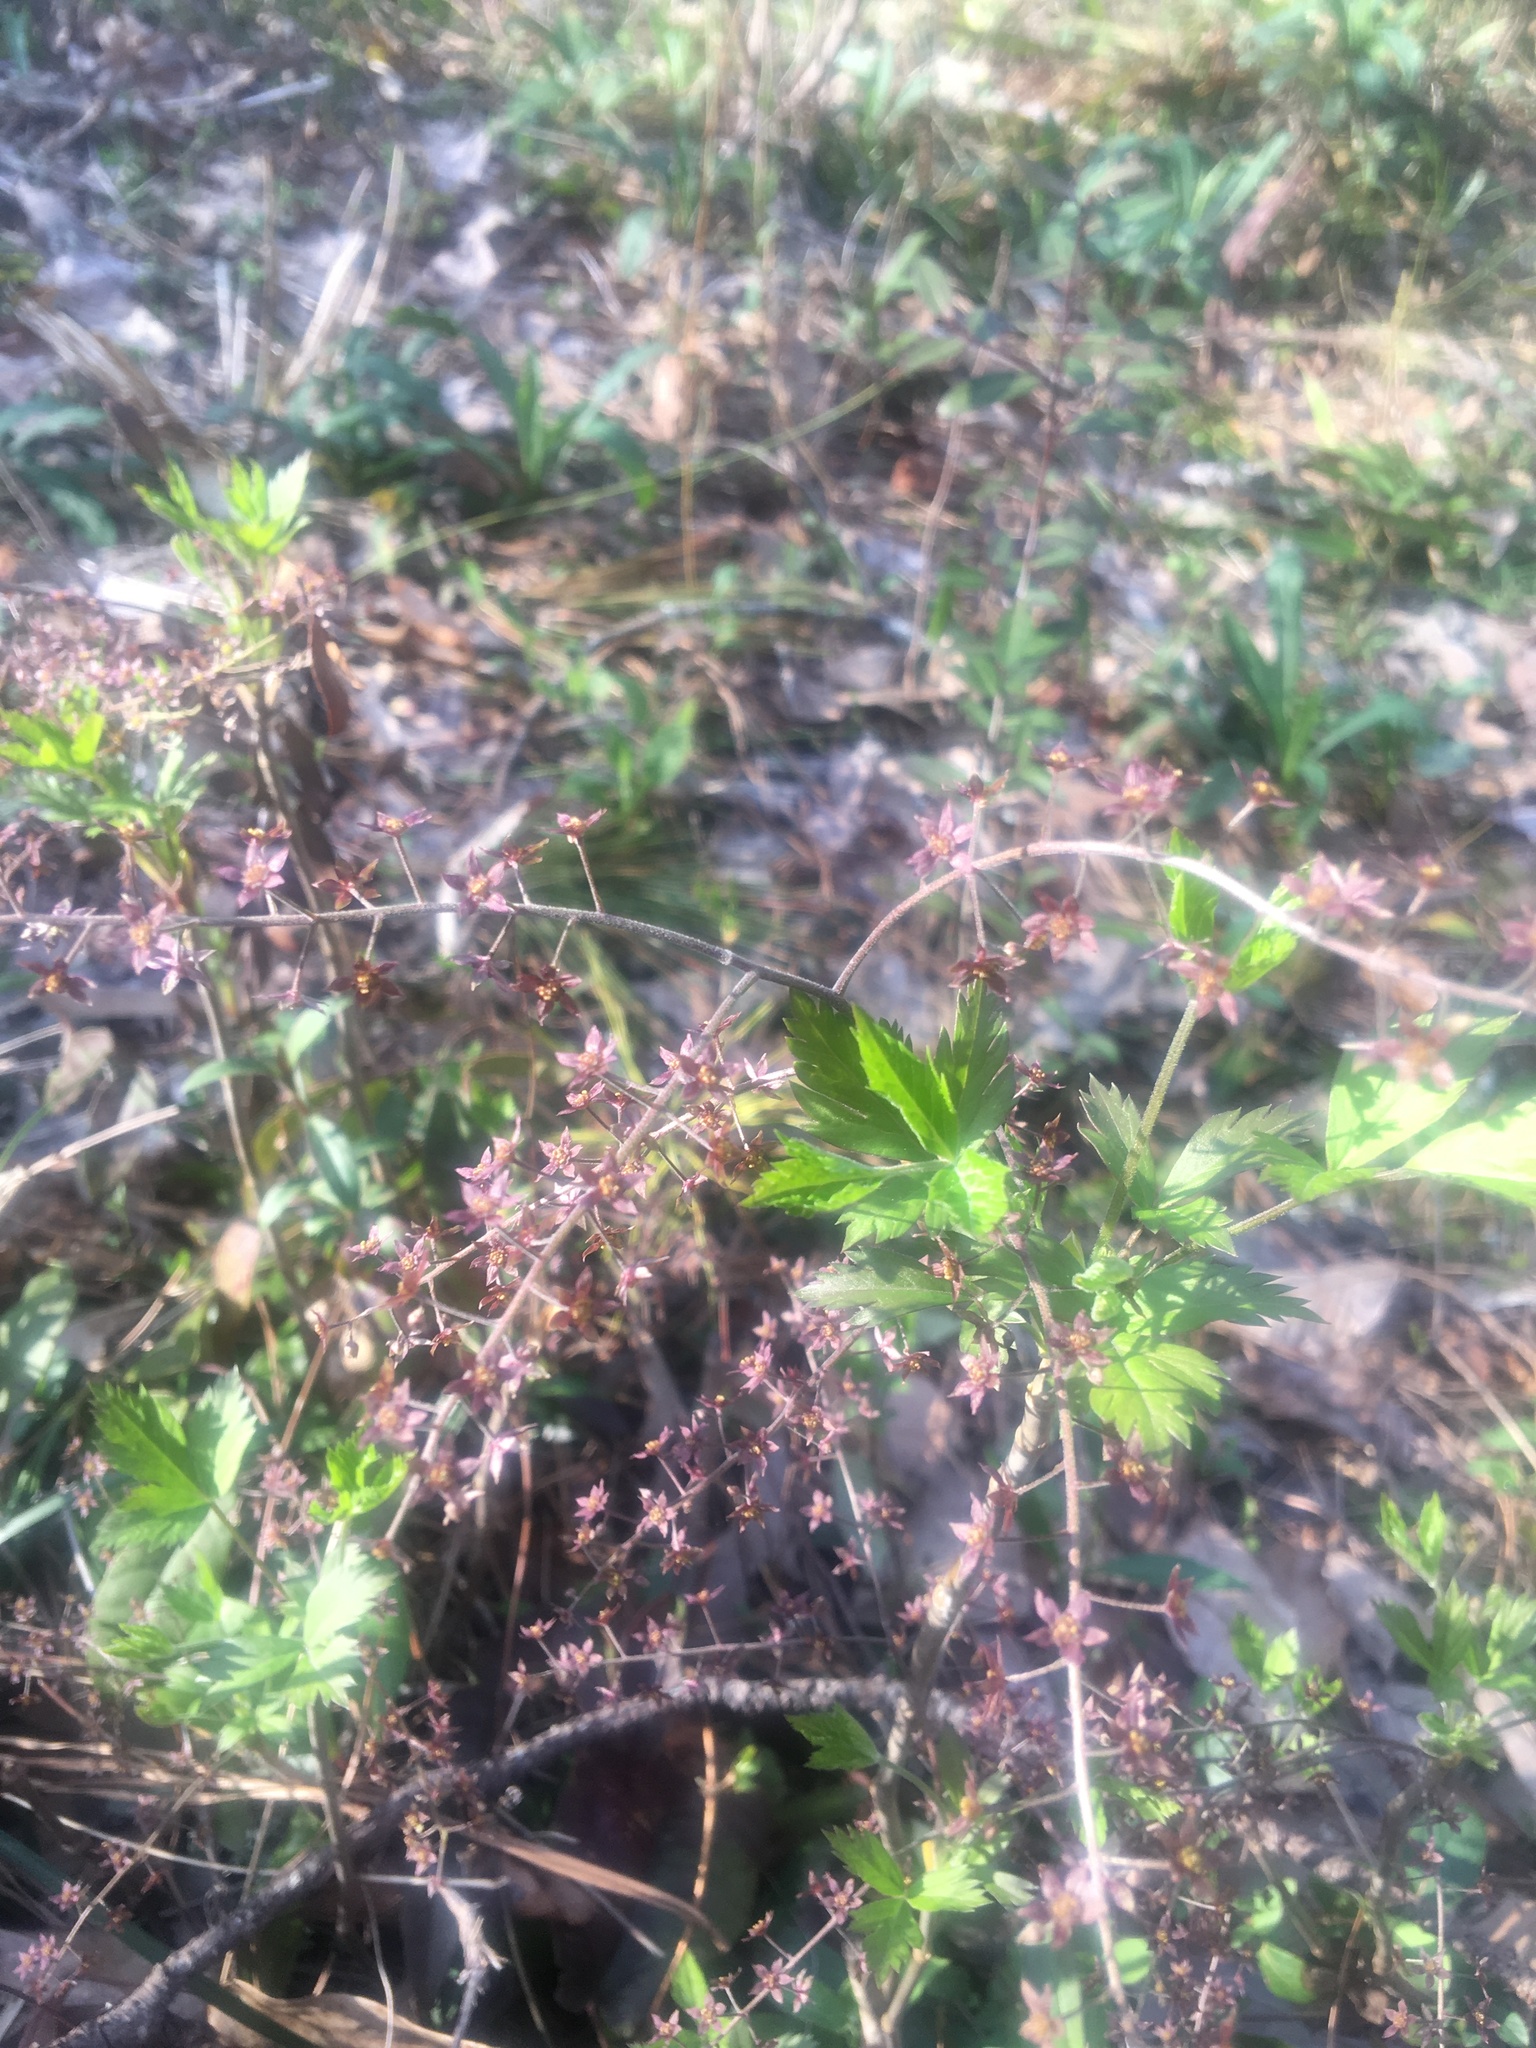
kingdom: Plantae
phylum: Tracheophyta
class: Magnoliopsida
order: Ranunculales
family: Ranunculaceae
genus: Xanthorhiza
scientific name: Xanthorhiza simplicissima
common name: Yellowroot
